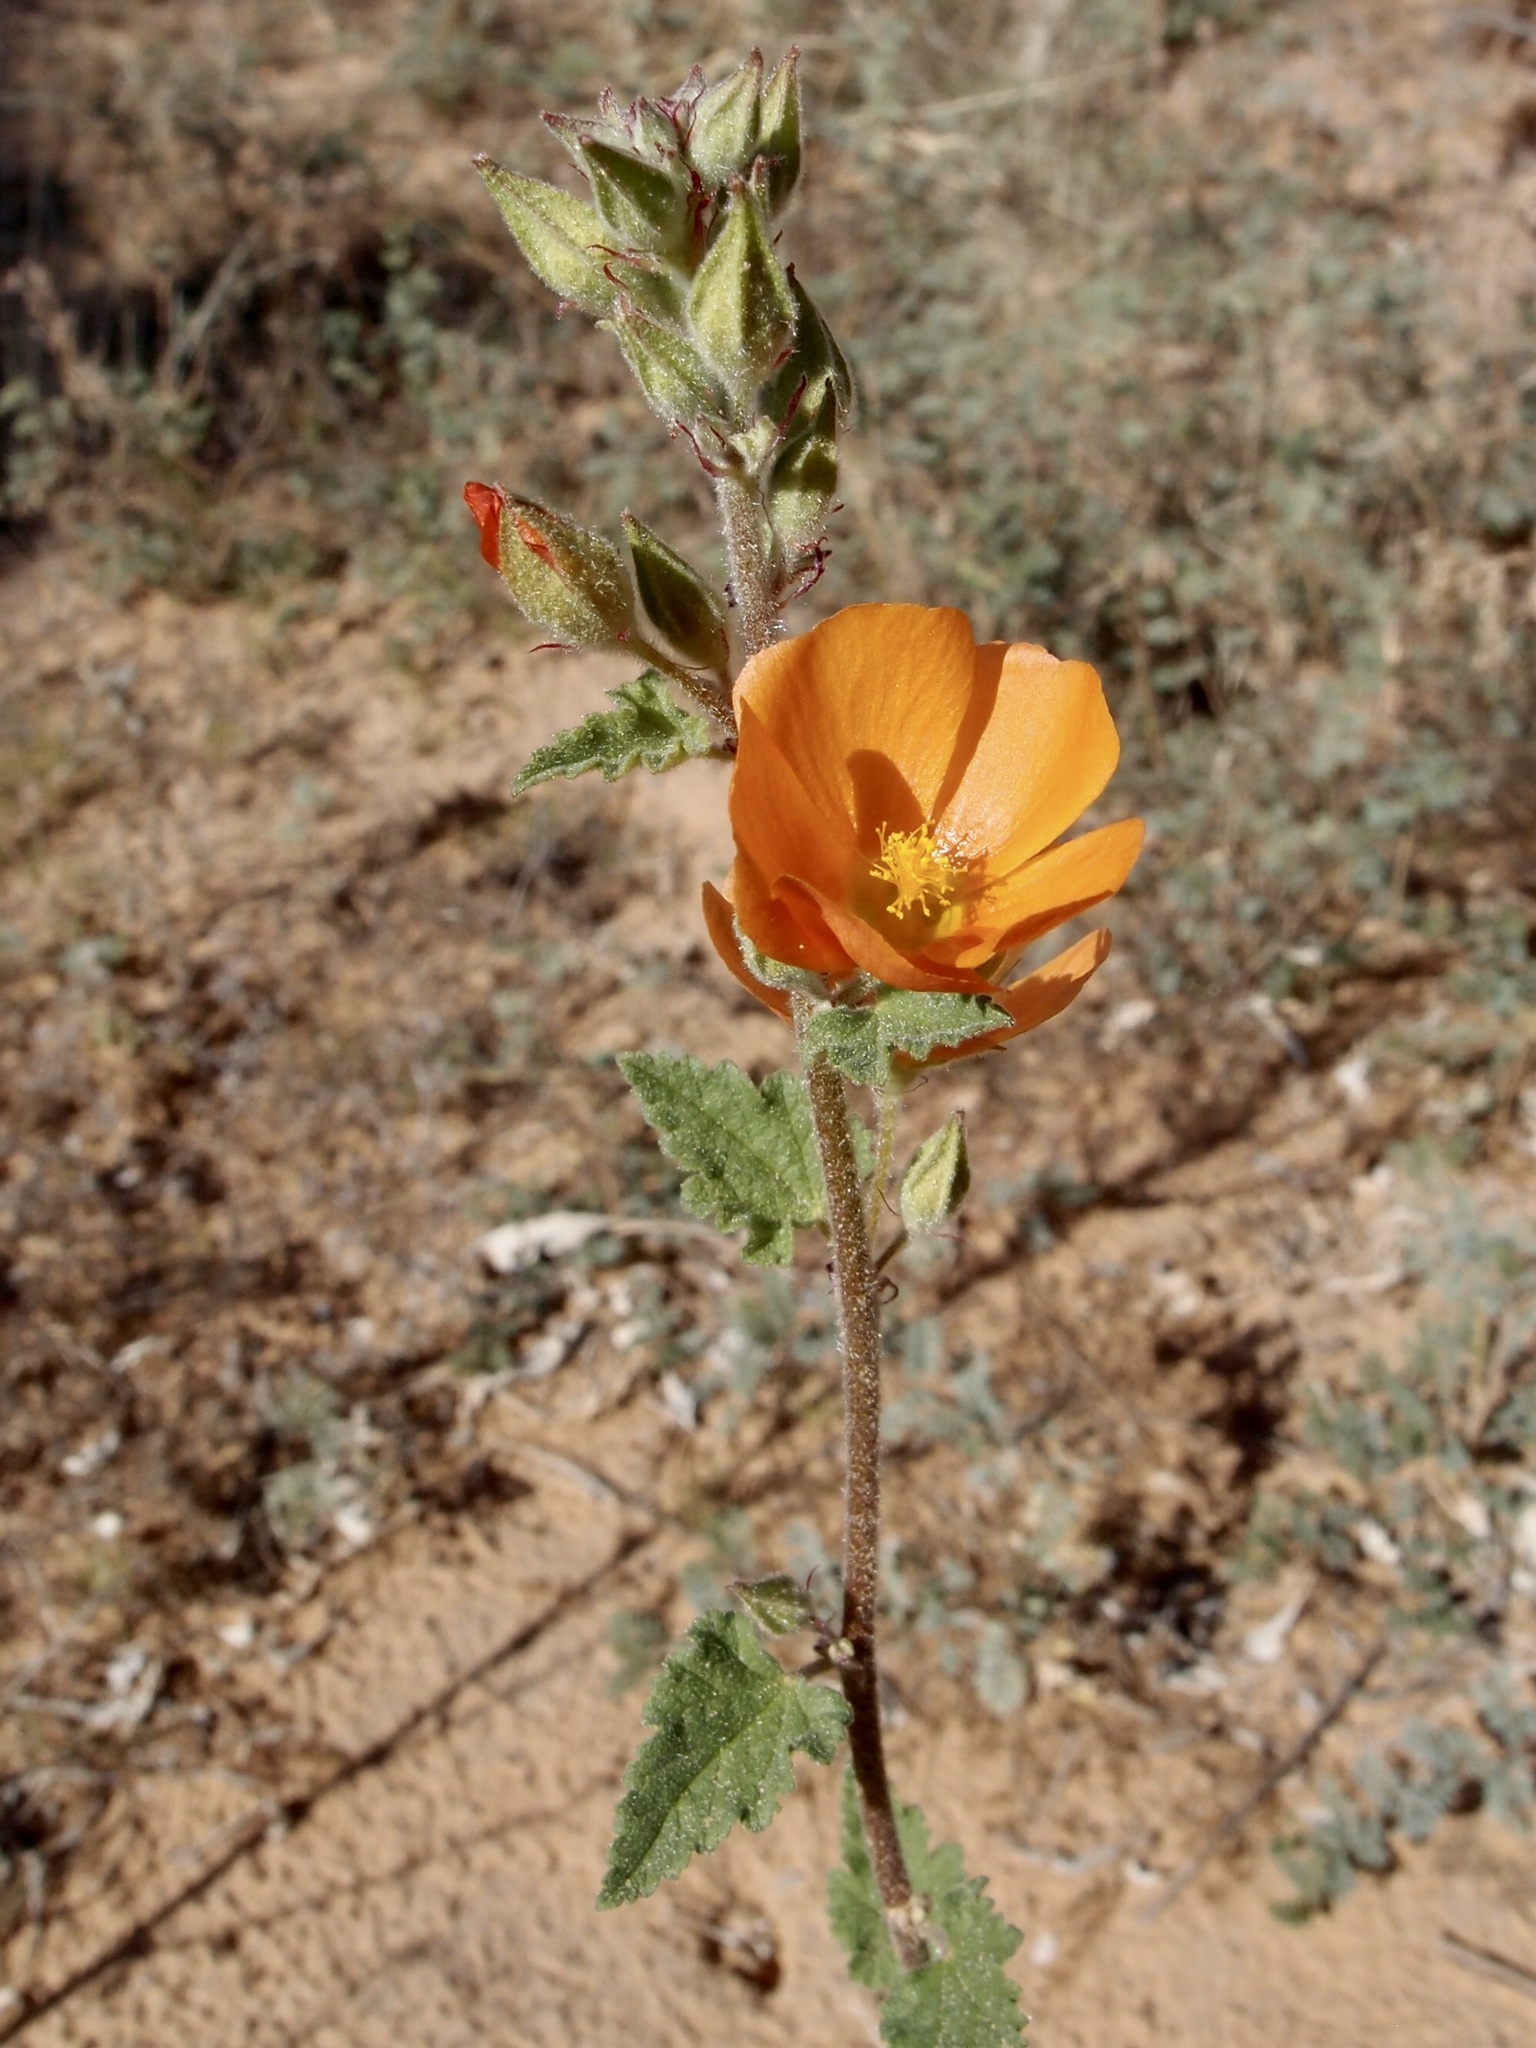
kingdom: Plantae
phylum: Tracheophyta
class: Magnoliopsida
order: Malvales
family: Malvaceae
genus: Sphaeralcea
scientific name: Sphaeralcea coulteri
